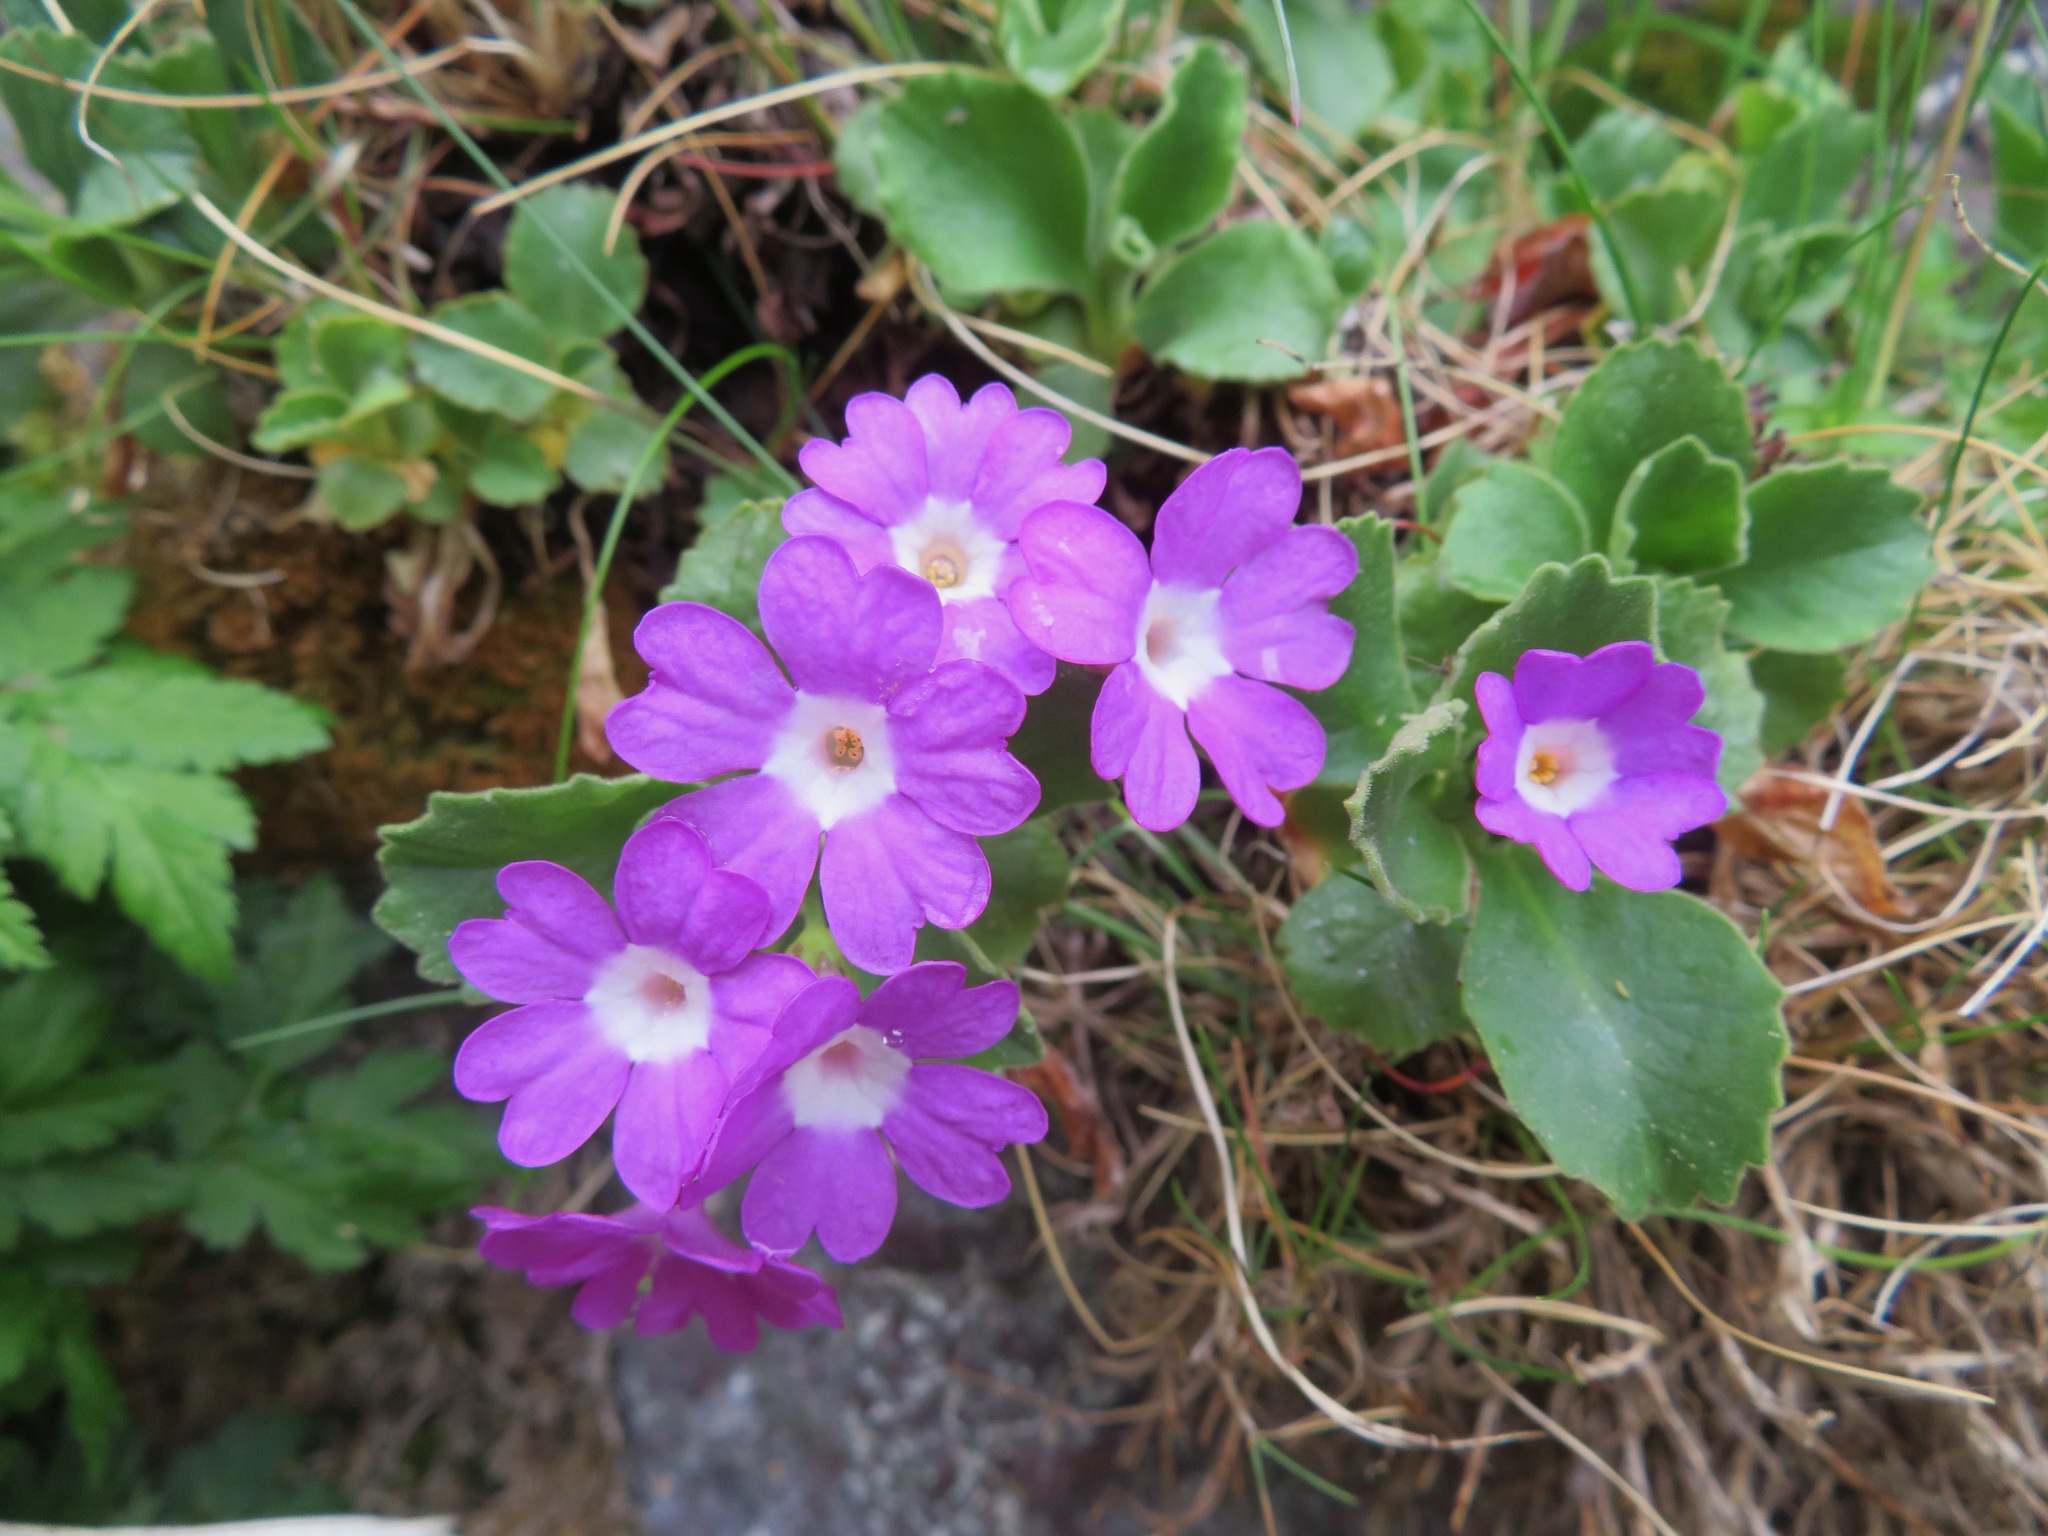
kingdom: Plantae
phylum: Tracheophyta
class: Magnoliopsida
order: Ericales
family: Primulaceae
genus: Primula
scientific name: Primula hirsuta
